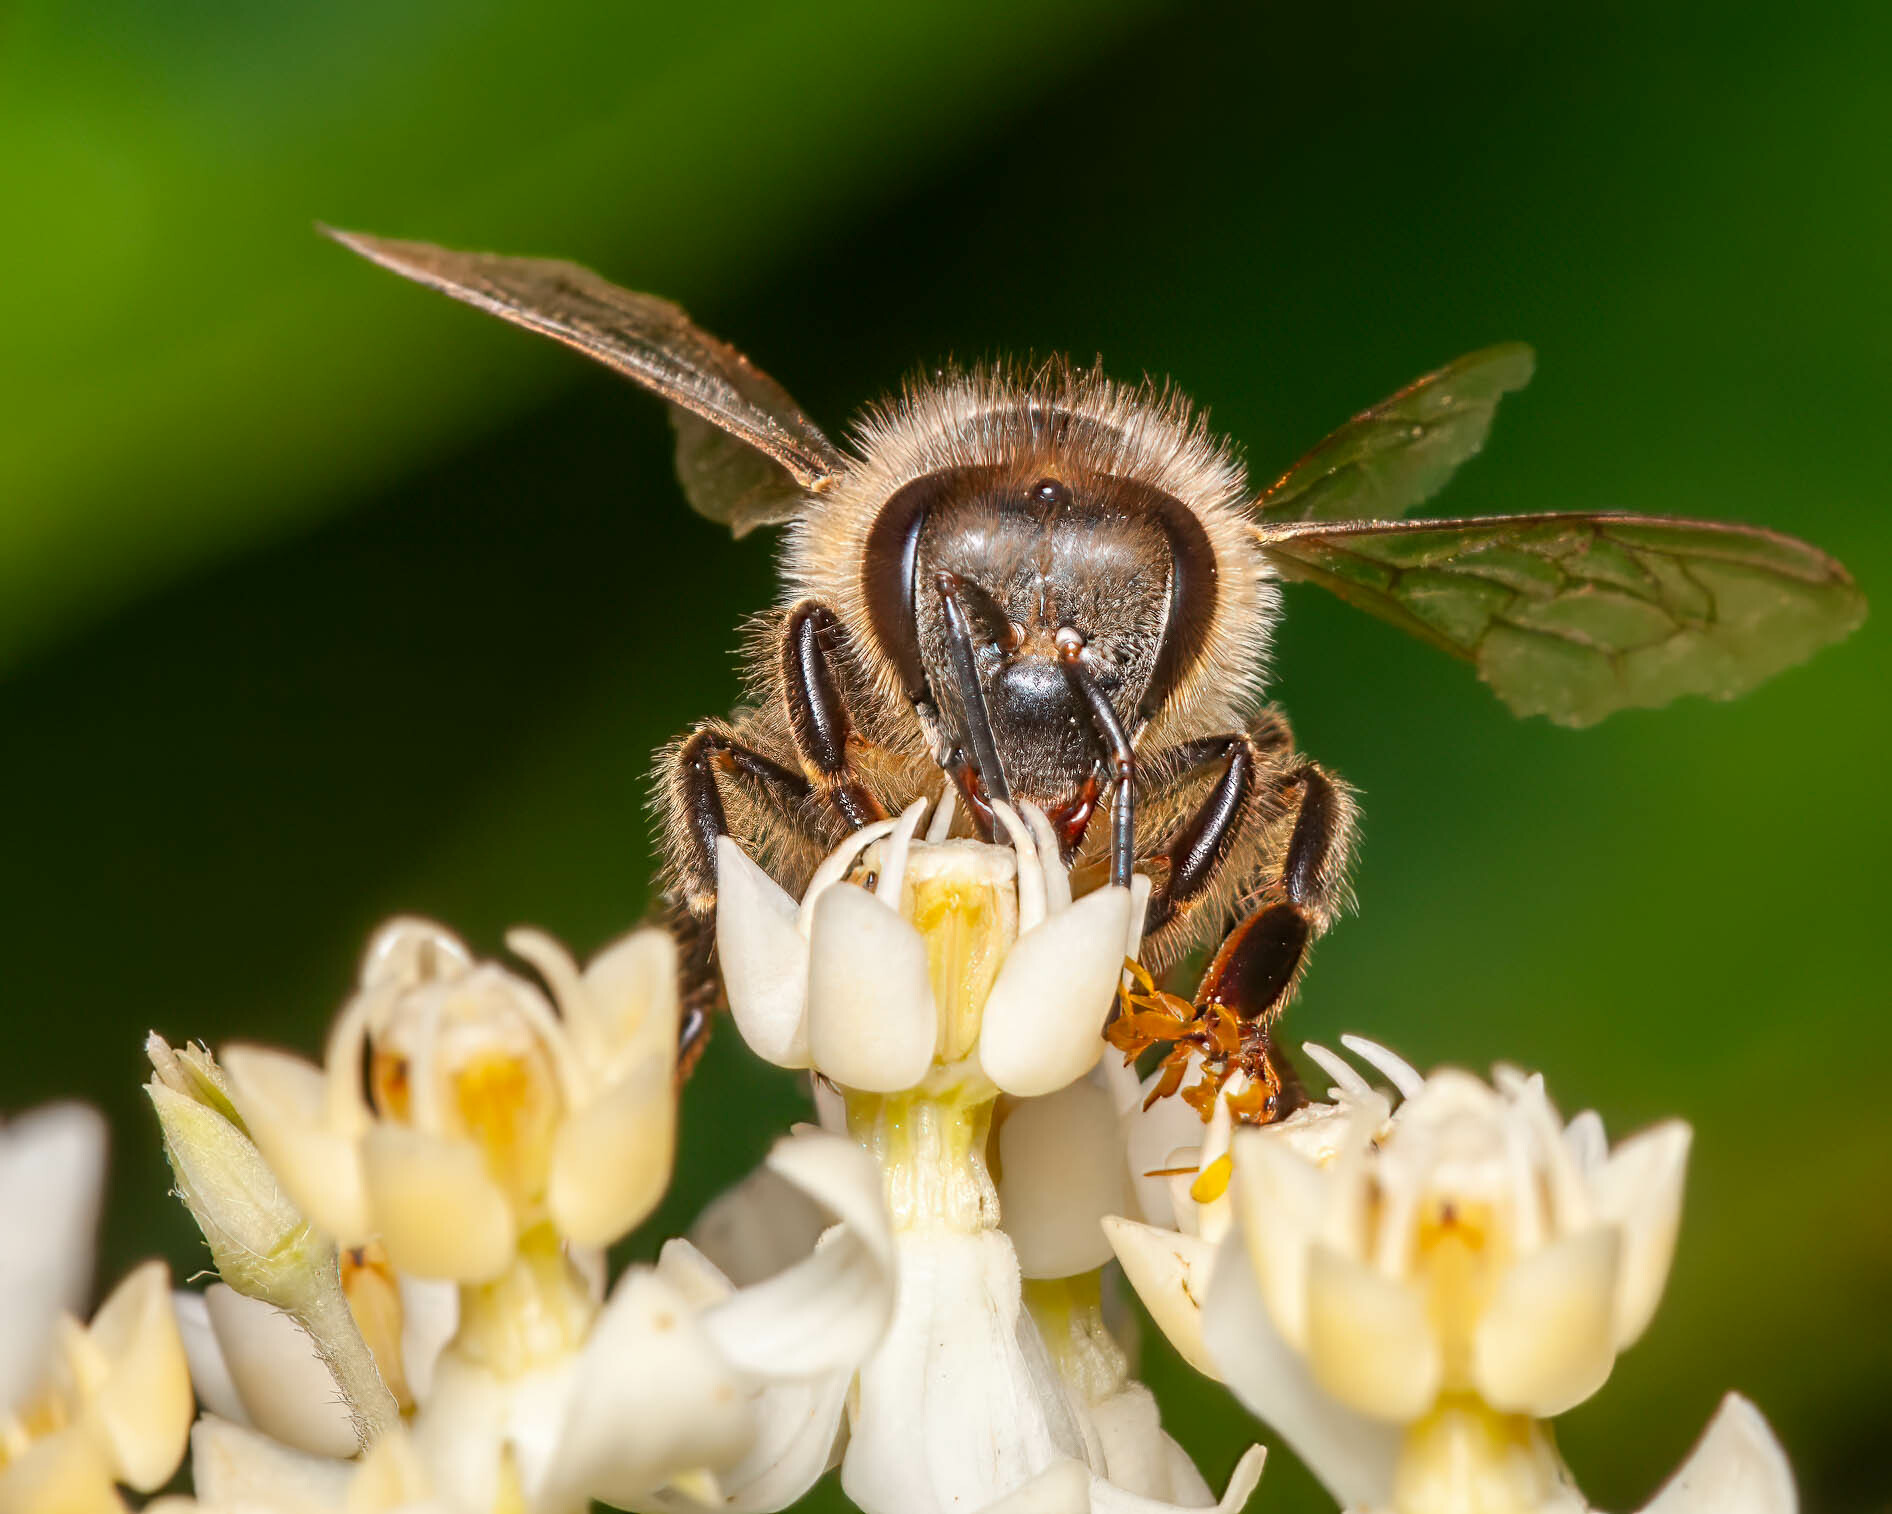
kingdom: Animalia
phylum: Arthropoda
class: Insecta
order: Hymenoptera
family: Apidae
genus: Apis
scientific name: Apis mellifera
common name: Honey bee
